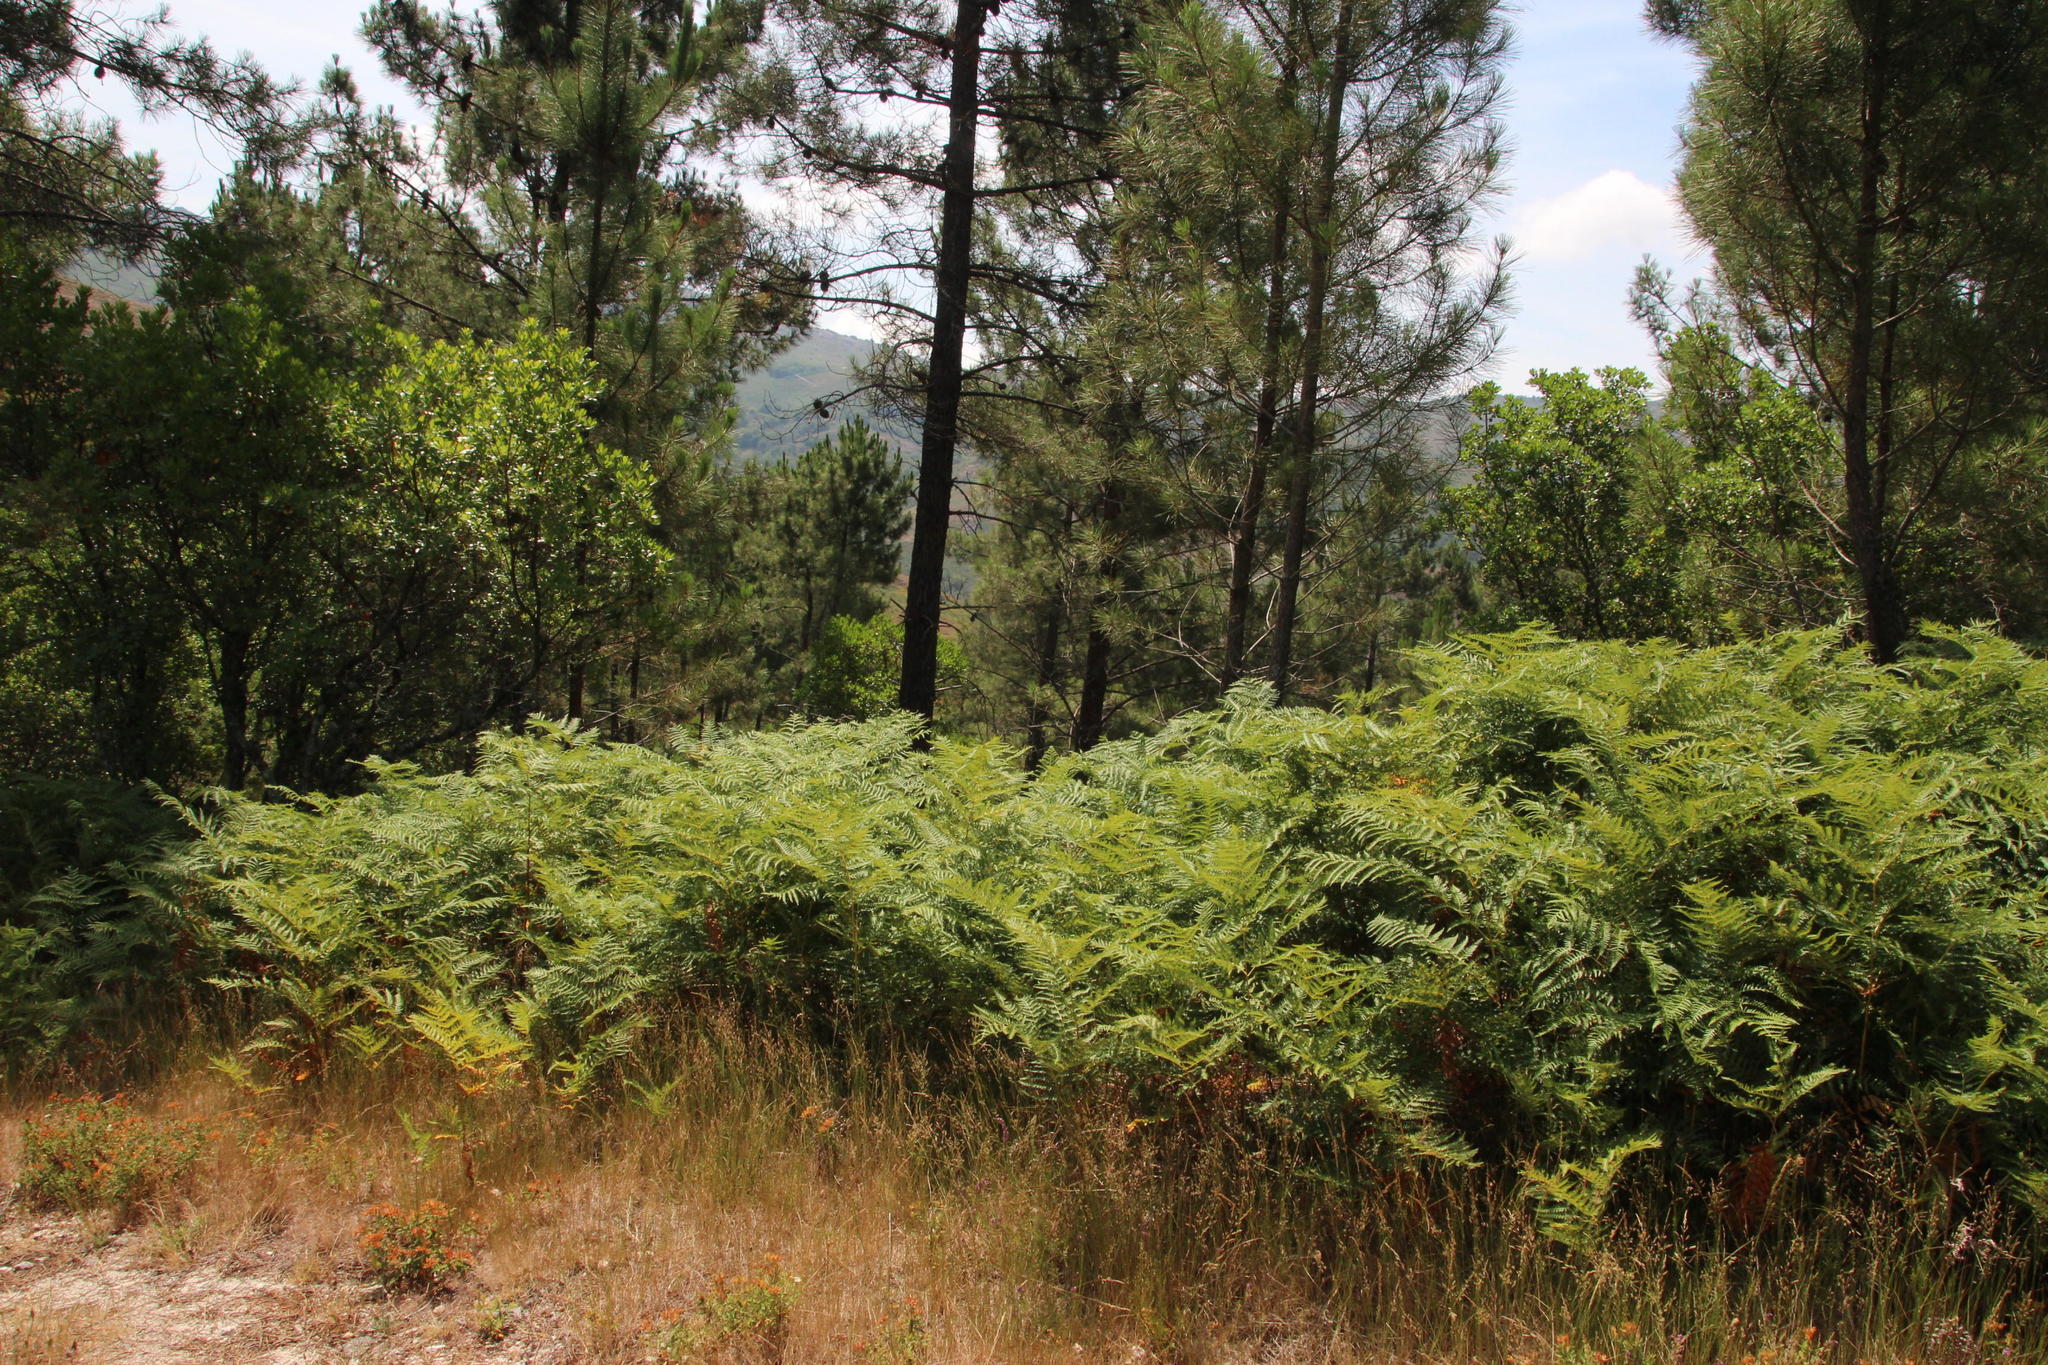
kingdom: Plantae
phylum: Tracheophyta
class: Polypodiopsida
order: Polypodiales
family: Dennstaedtiaceae
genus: Pteridium
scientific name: Pteridium aquilinum
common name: Bracken
